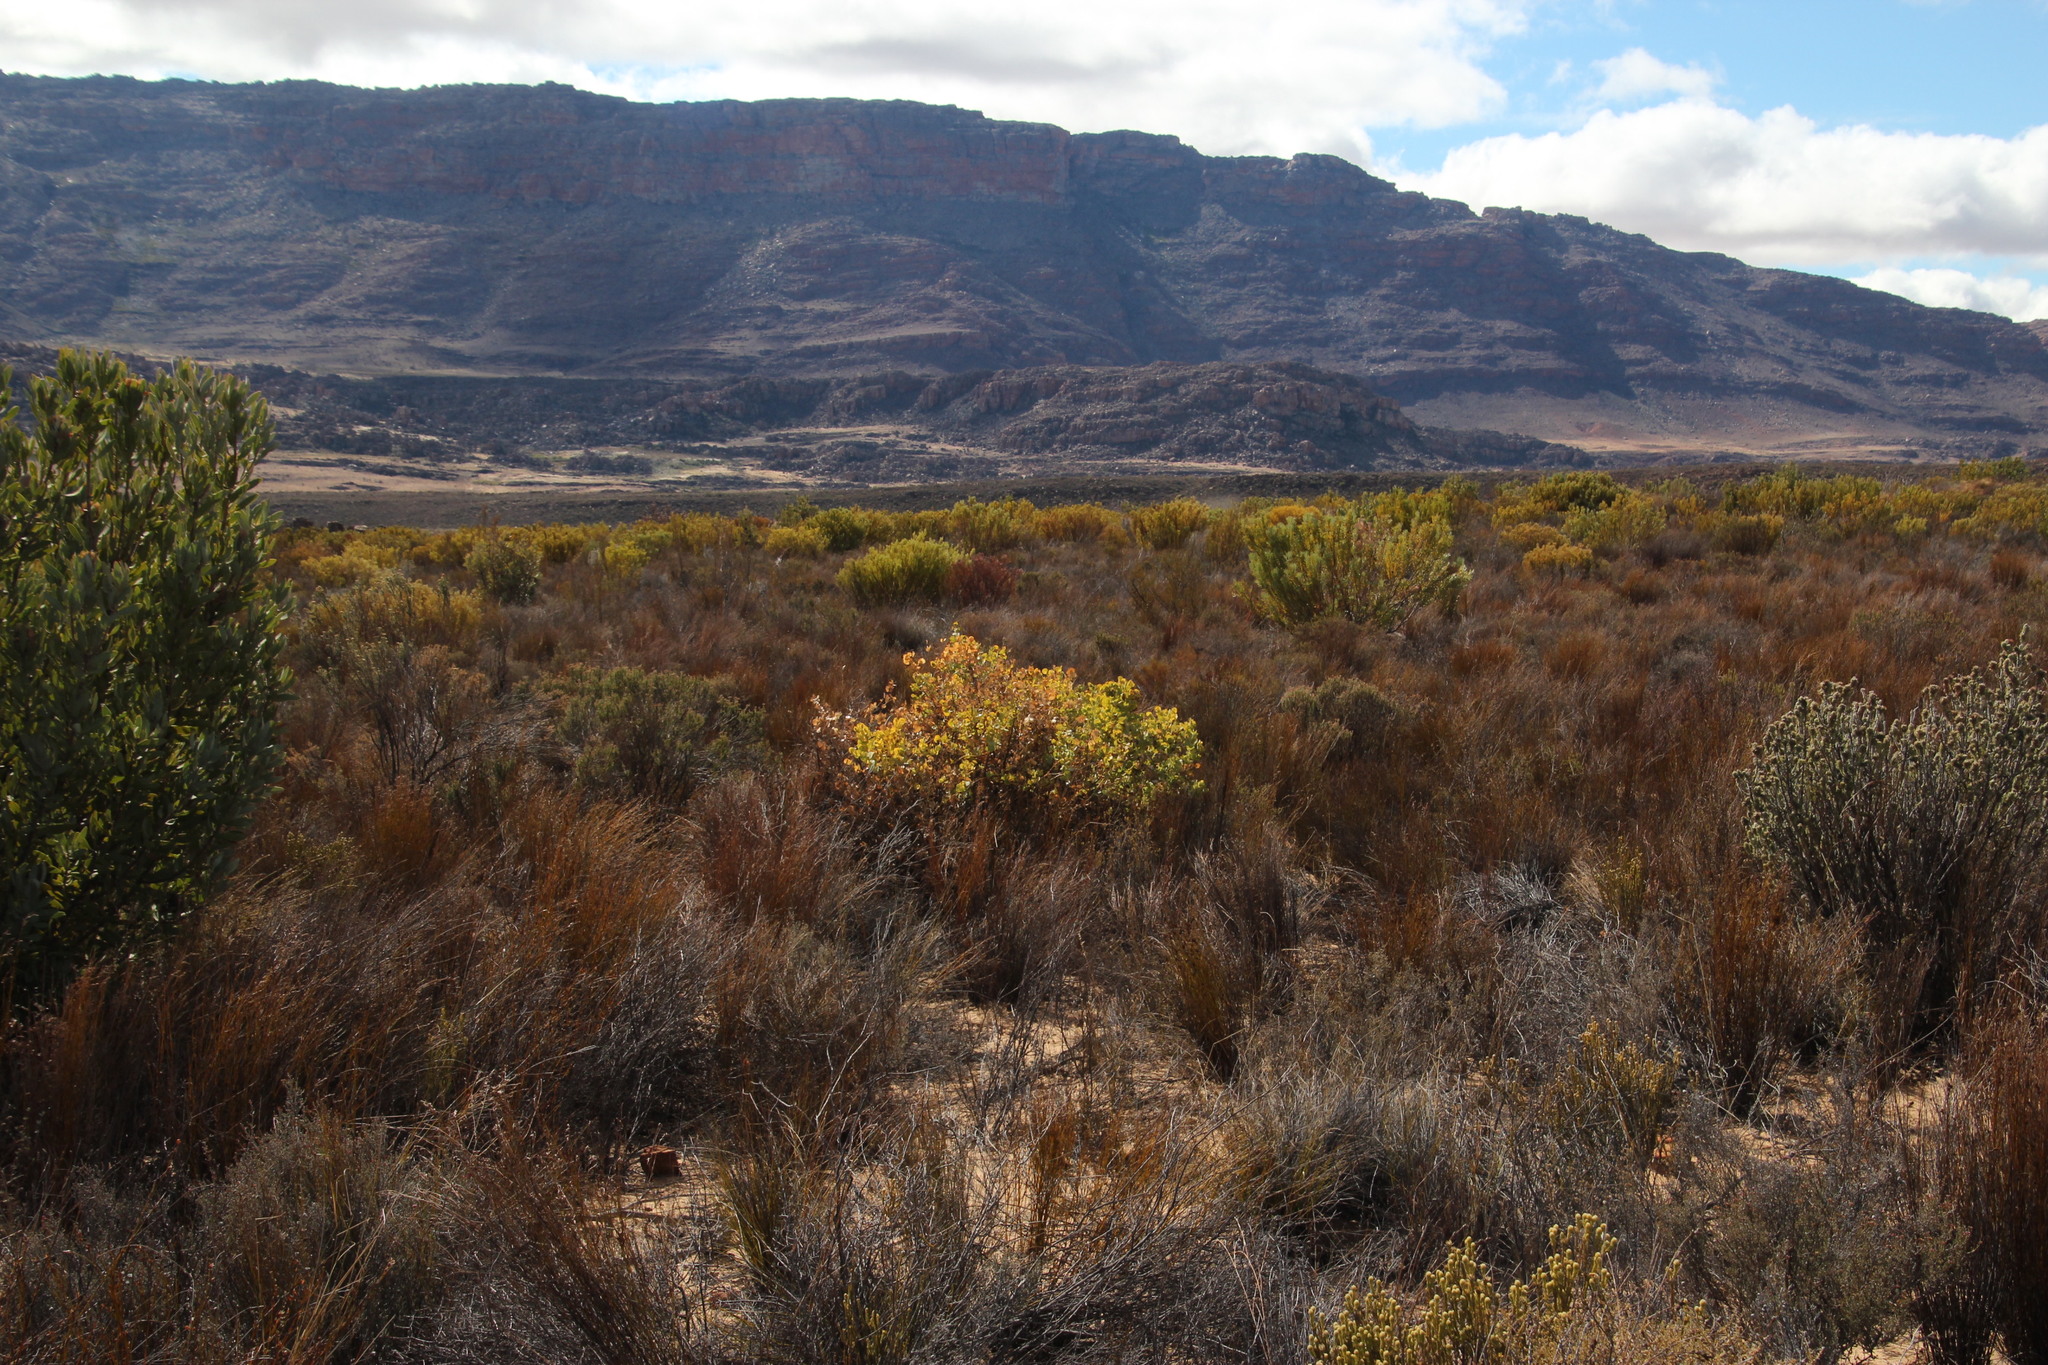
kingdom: Plantae
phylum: Tracheophyta
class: Magnoliopsida
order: Fabales
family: Fabaceae
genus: Rafnia
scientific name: Rafnia amplexicaulis
